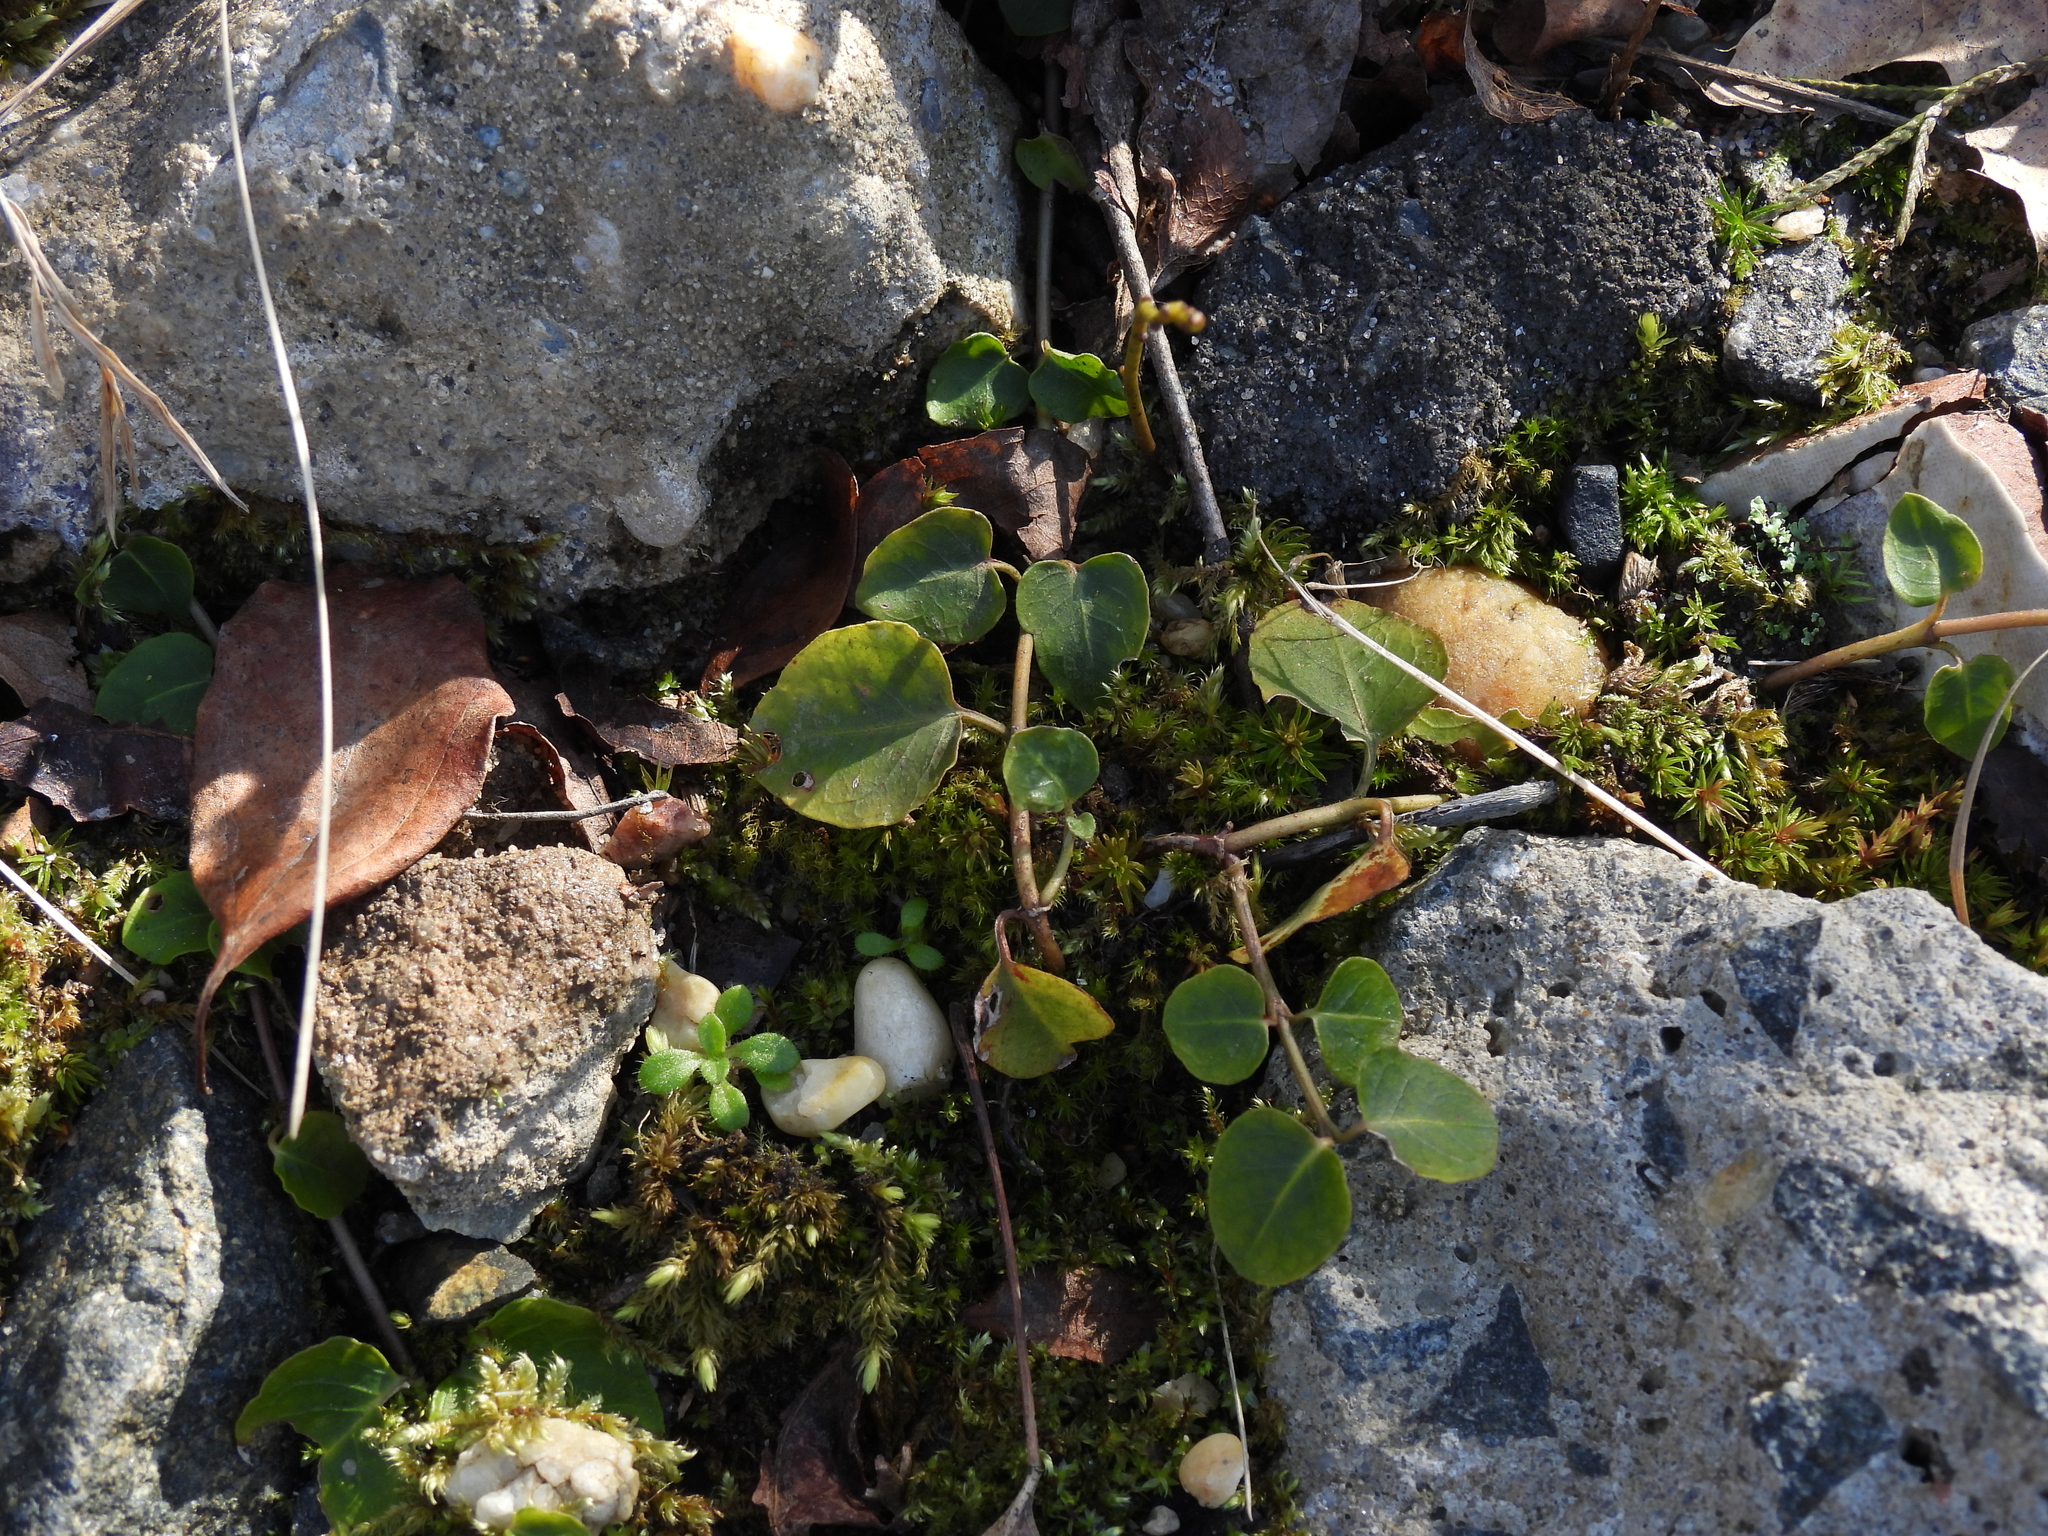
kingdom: Plantae
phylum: Tracheophyta
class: Magnoliopsida
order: Gentianales
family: Rubiaceae
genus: Mitchella
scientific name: Mitchella repens
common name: Partridge-berry
